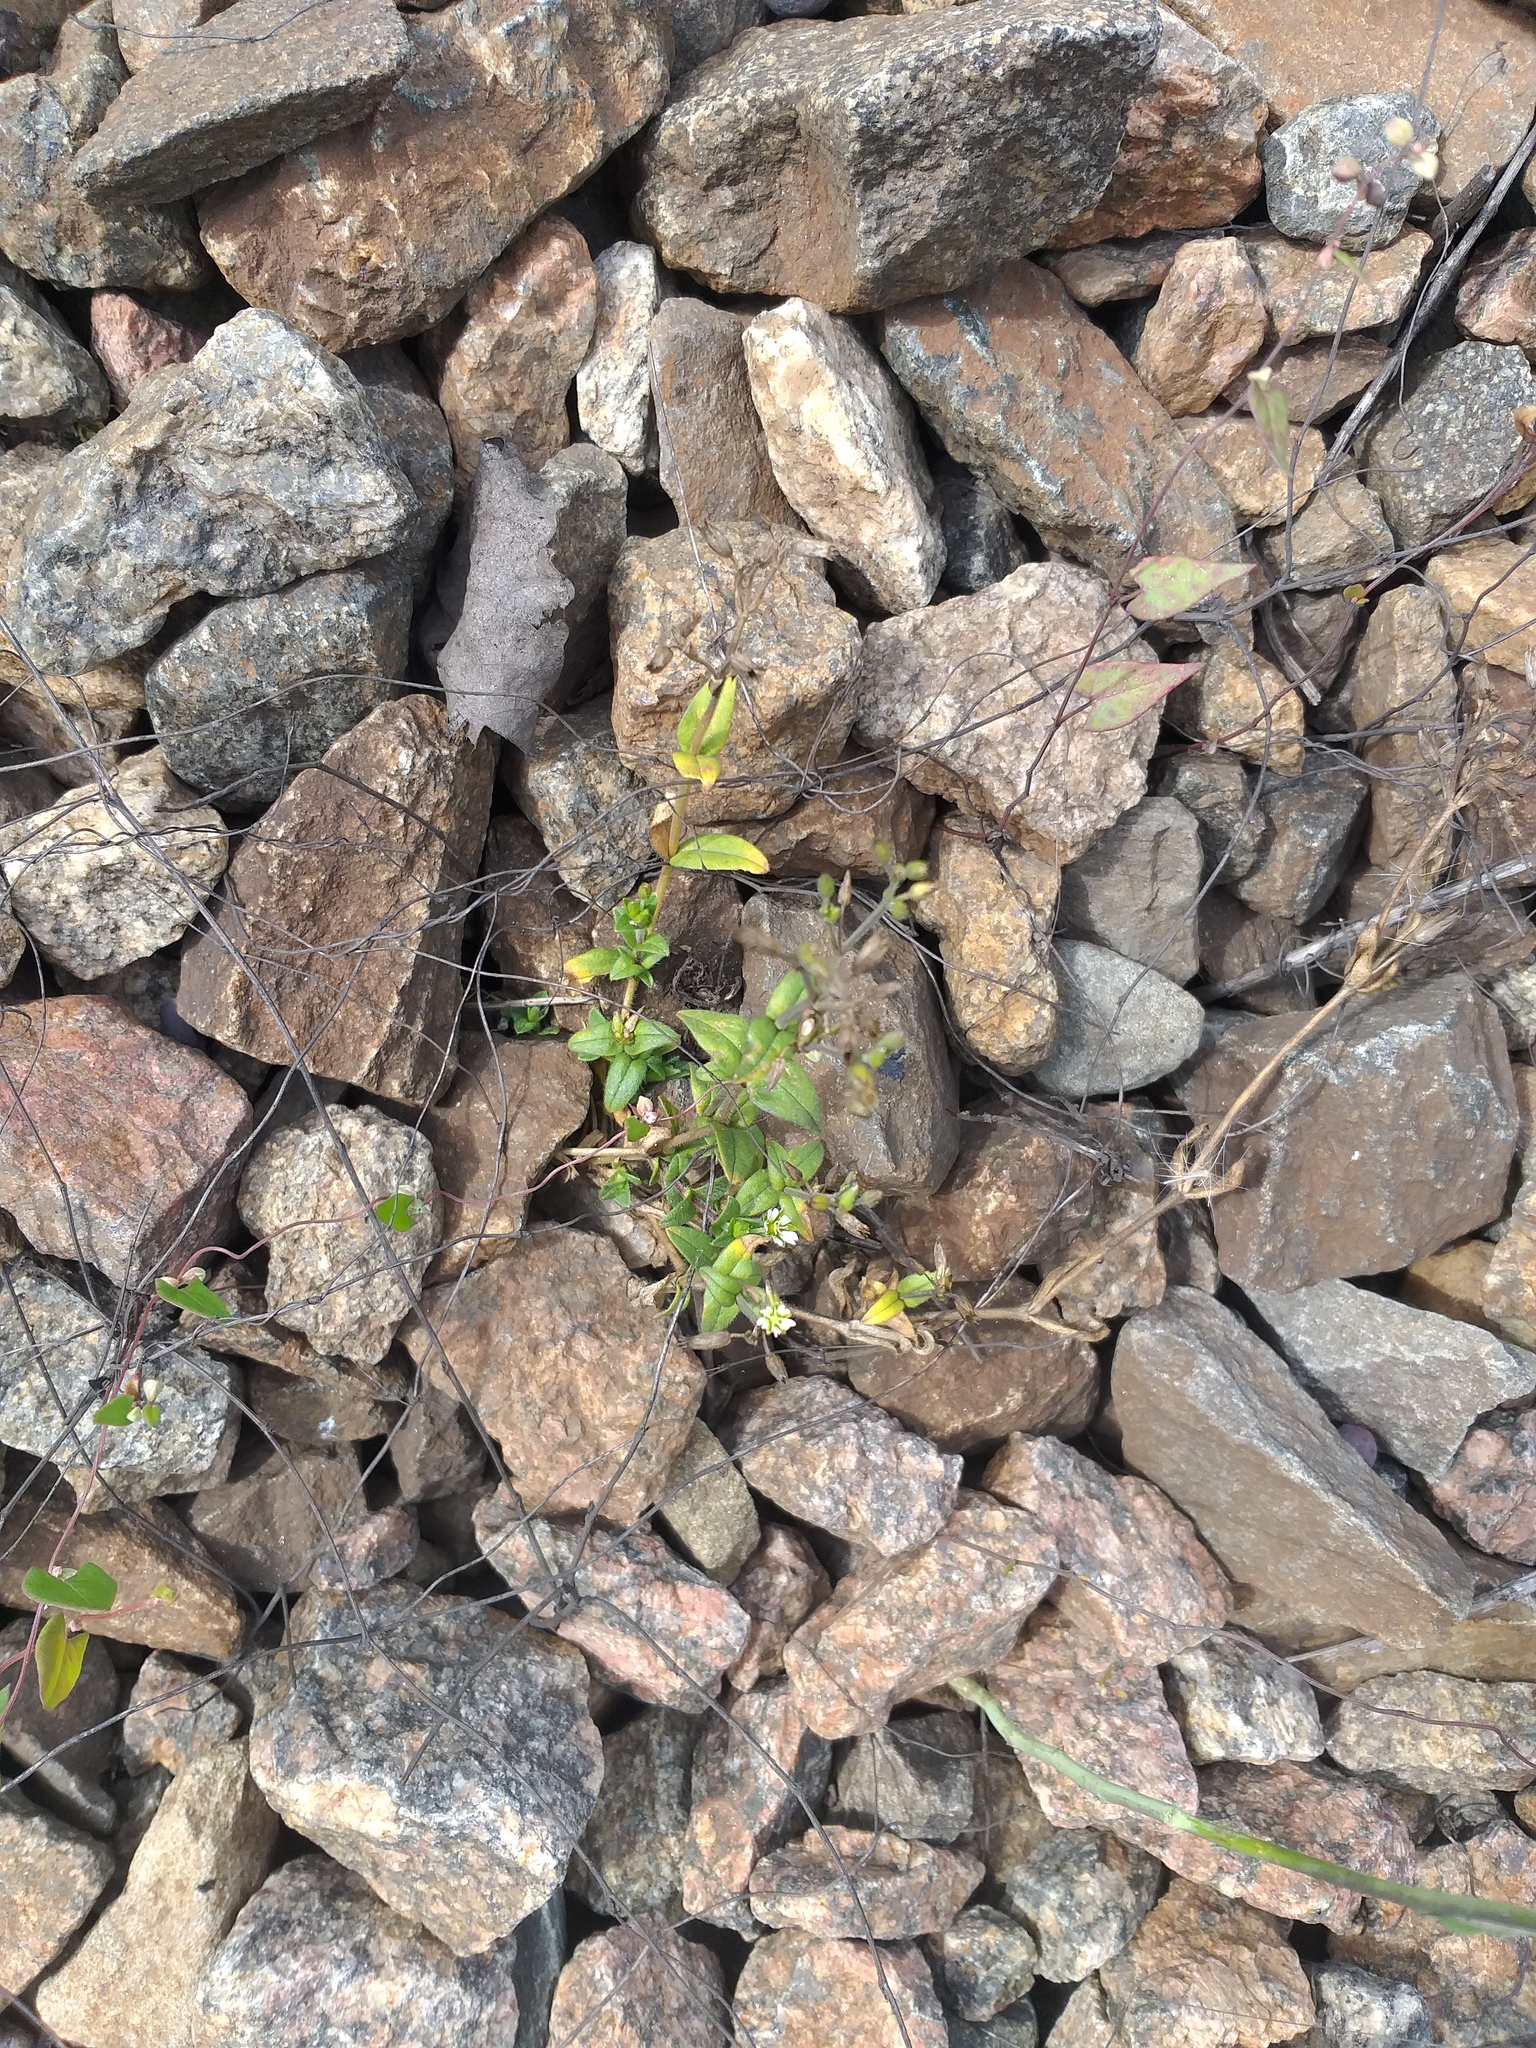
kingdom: Plantae
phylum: Tracheophyta
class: Magnoliopsida
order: Caryophyllales
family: Caryophyllaceae
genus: Cerastium
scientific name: Cerastium holosteoides
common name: Big chickweed
